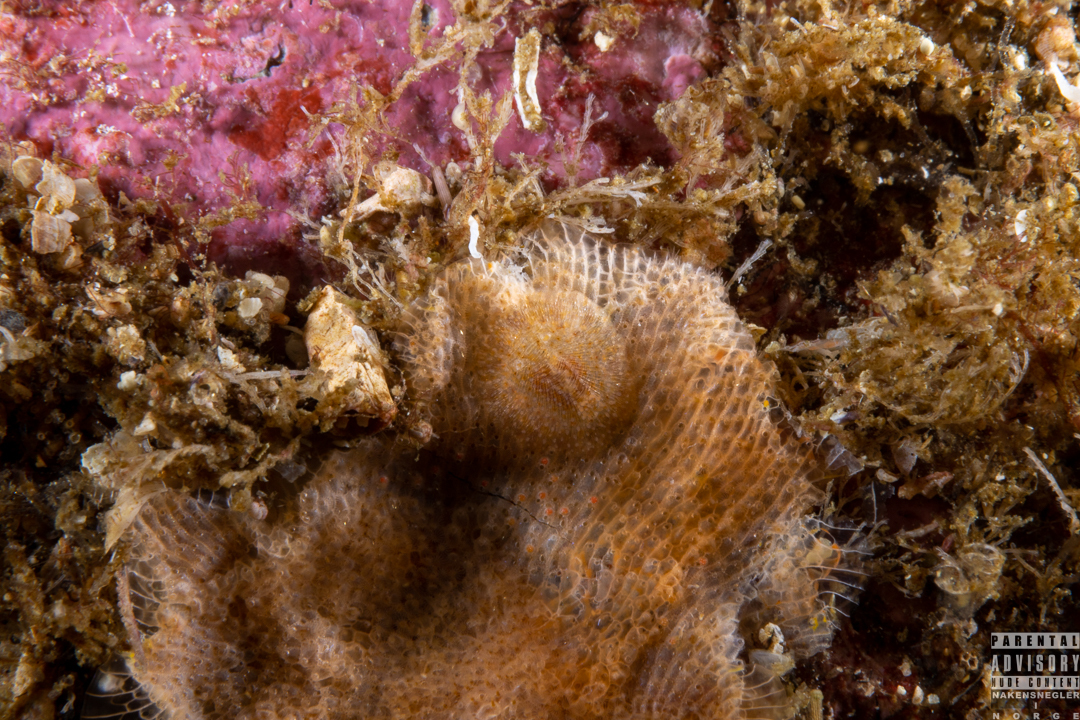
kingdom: Animalia
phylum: Mollusca
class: Gastropoda
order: Nudibranchia
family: Onchidorididae
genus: Idaliadoris
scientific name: Idaliadoris depressa
